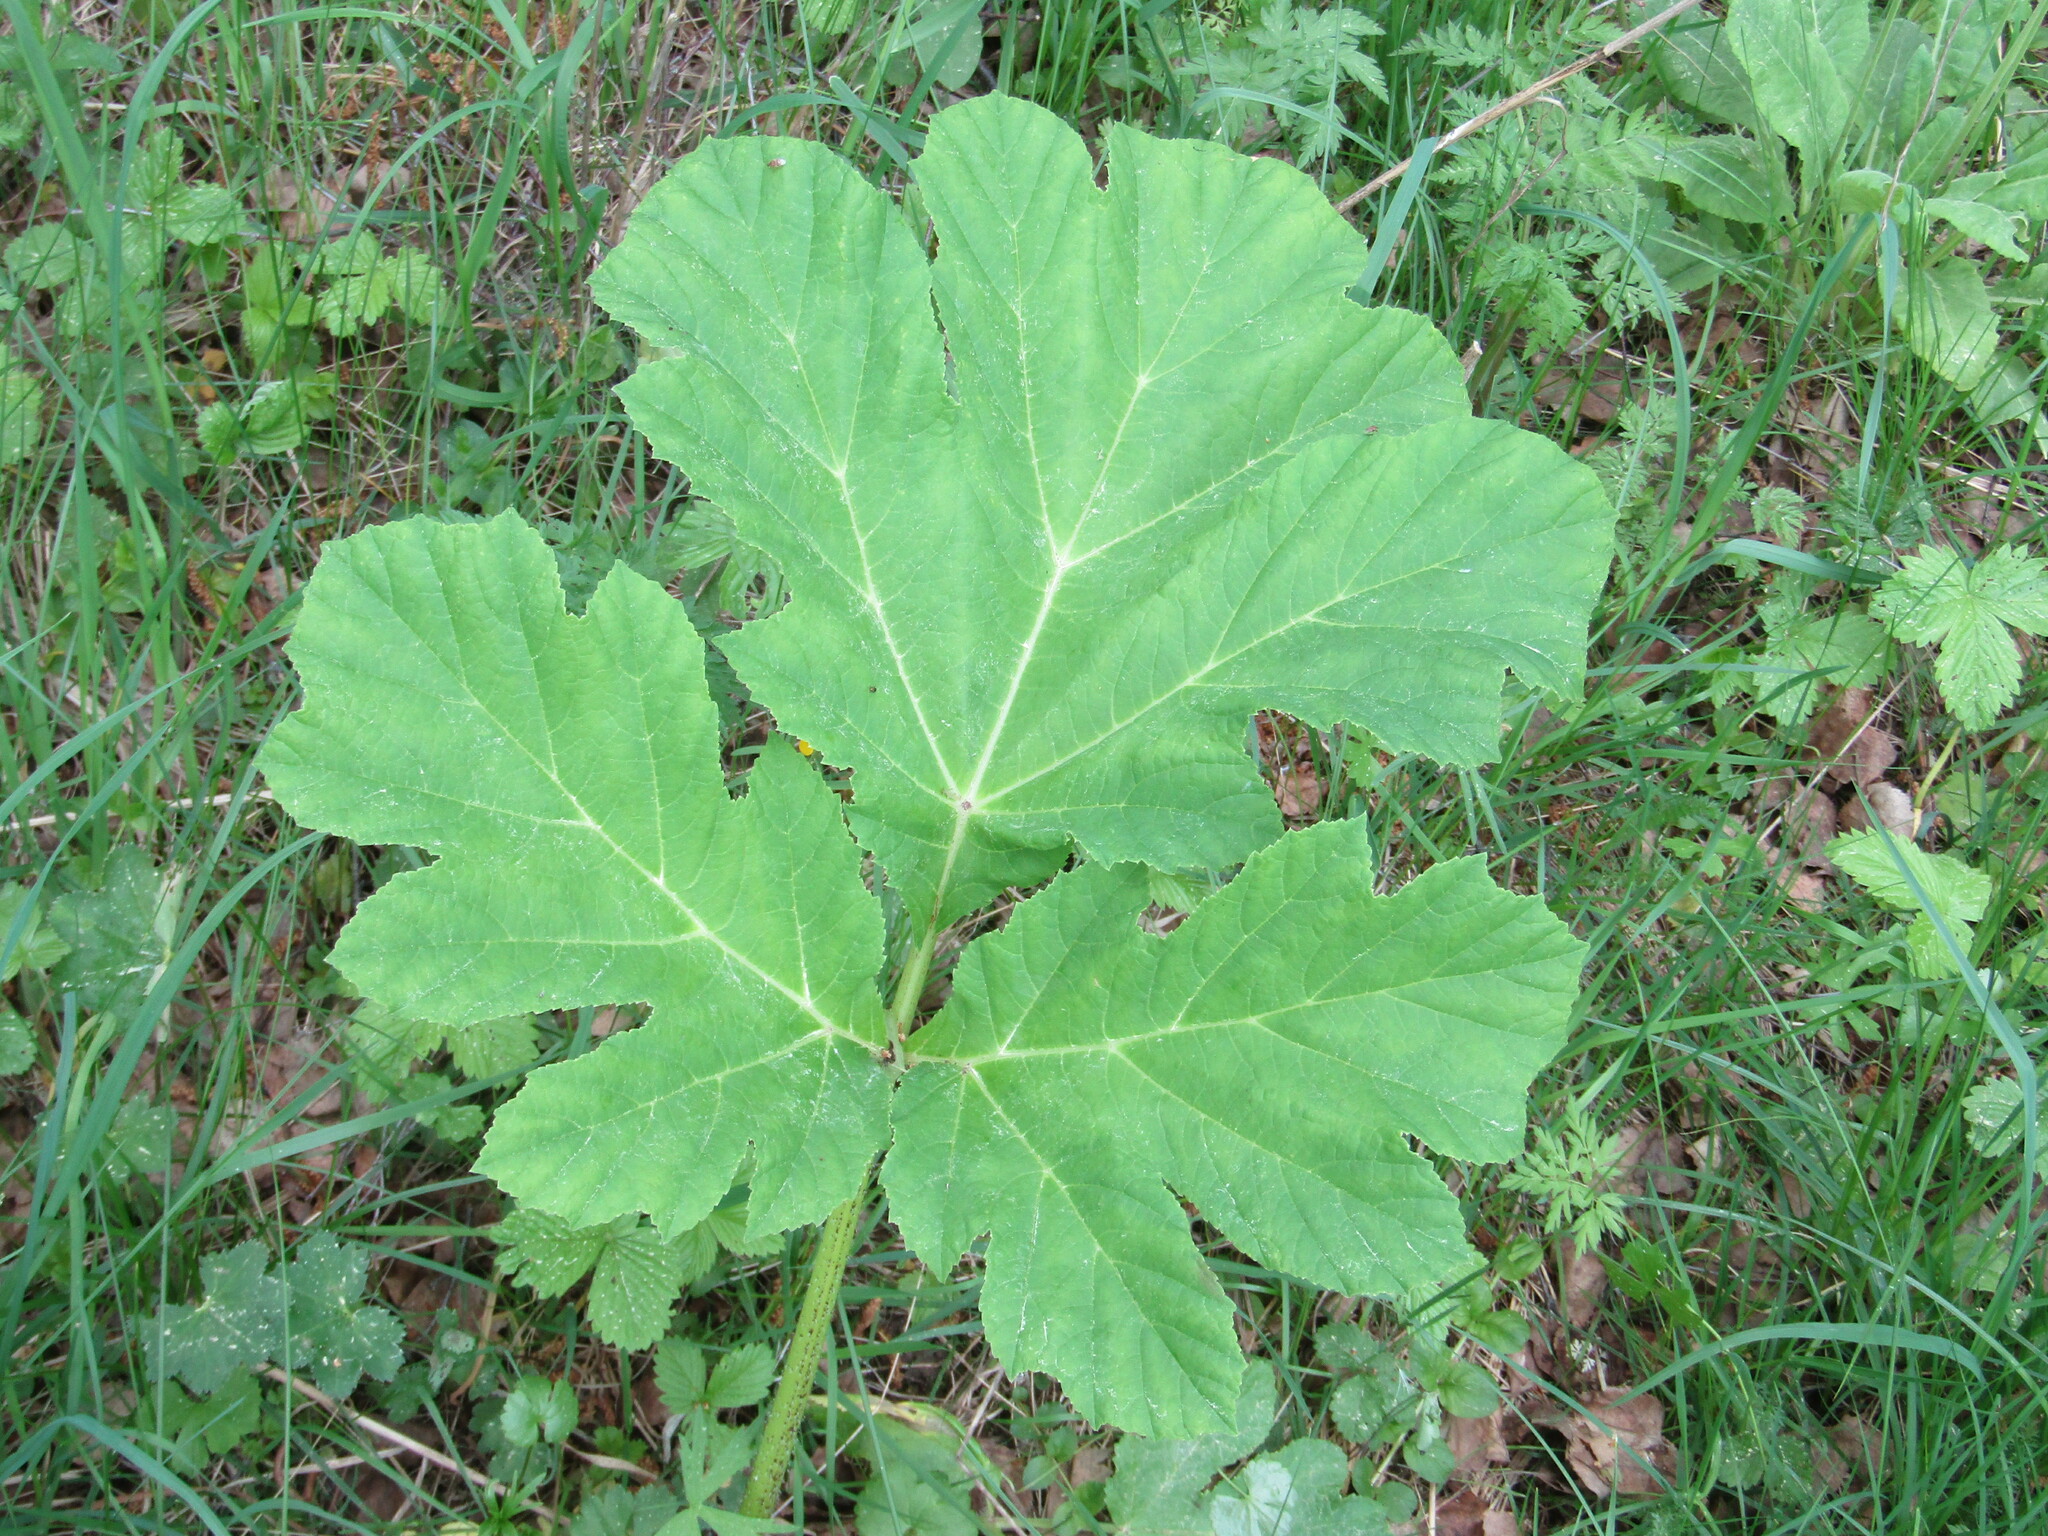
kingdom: Plantae
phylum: Tracheophyta
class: Magnoliopsida
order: Apiales
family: Apiaceae
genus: Heracleum
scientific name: Heracleum sosnowskyi
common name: Sosnowsky's hogweed
